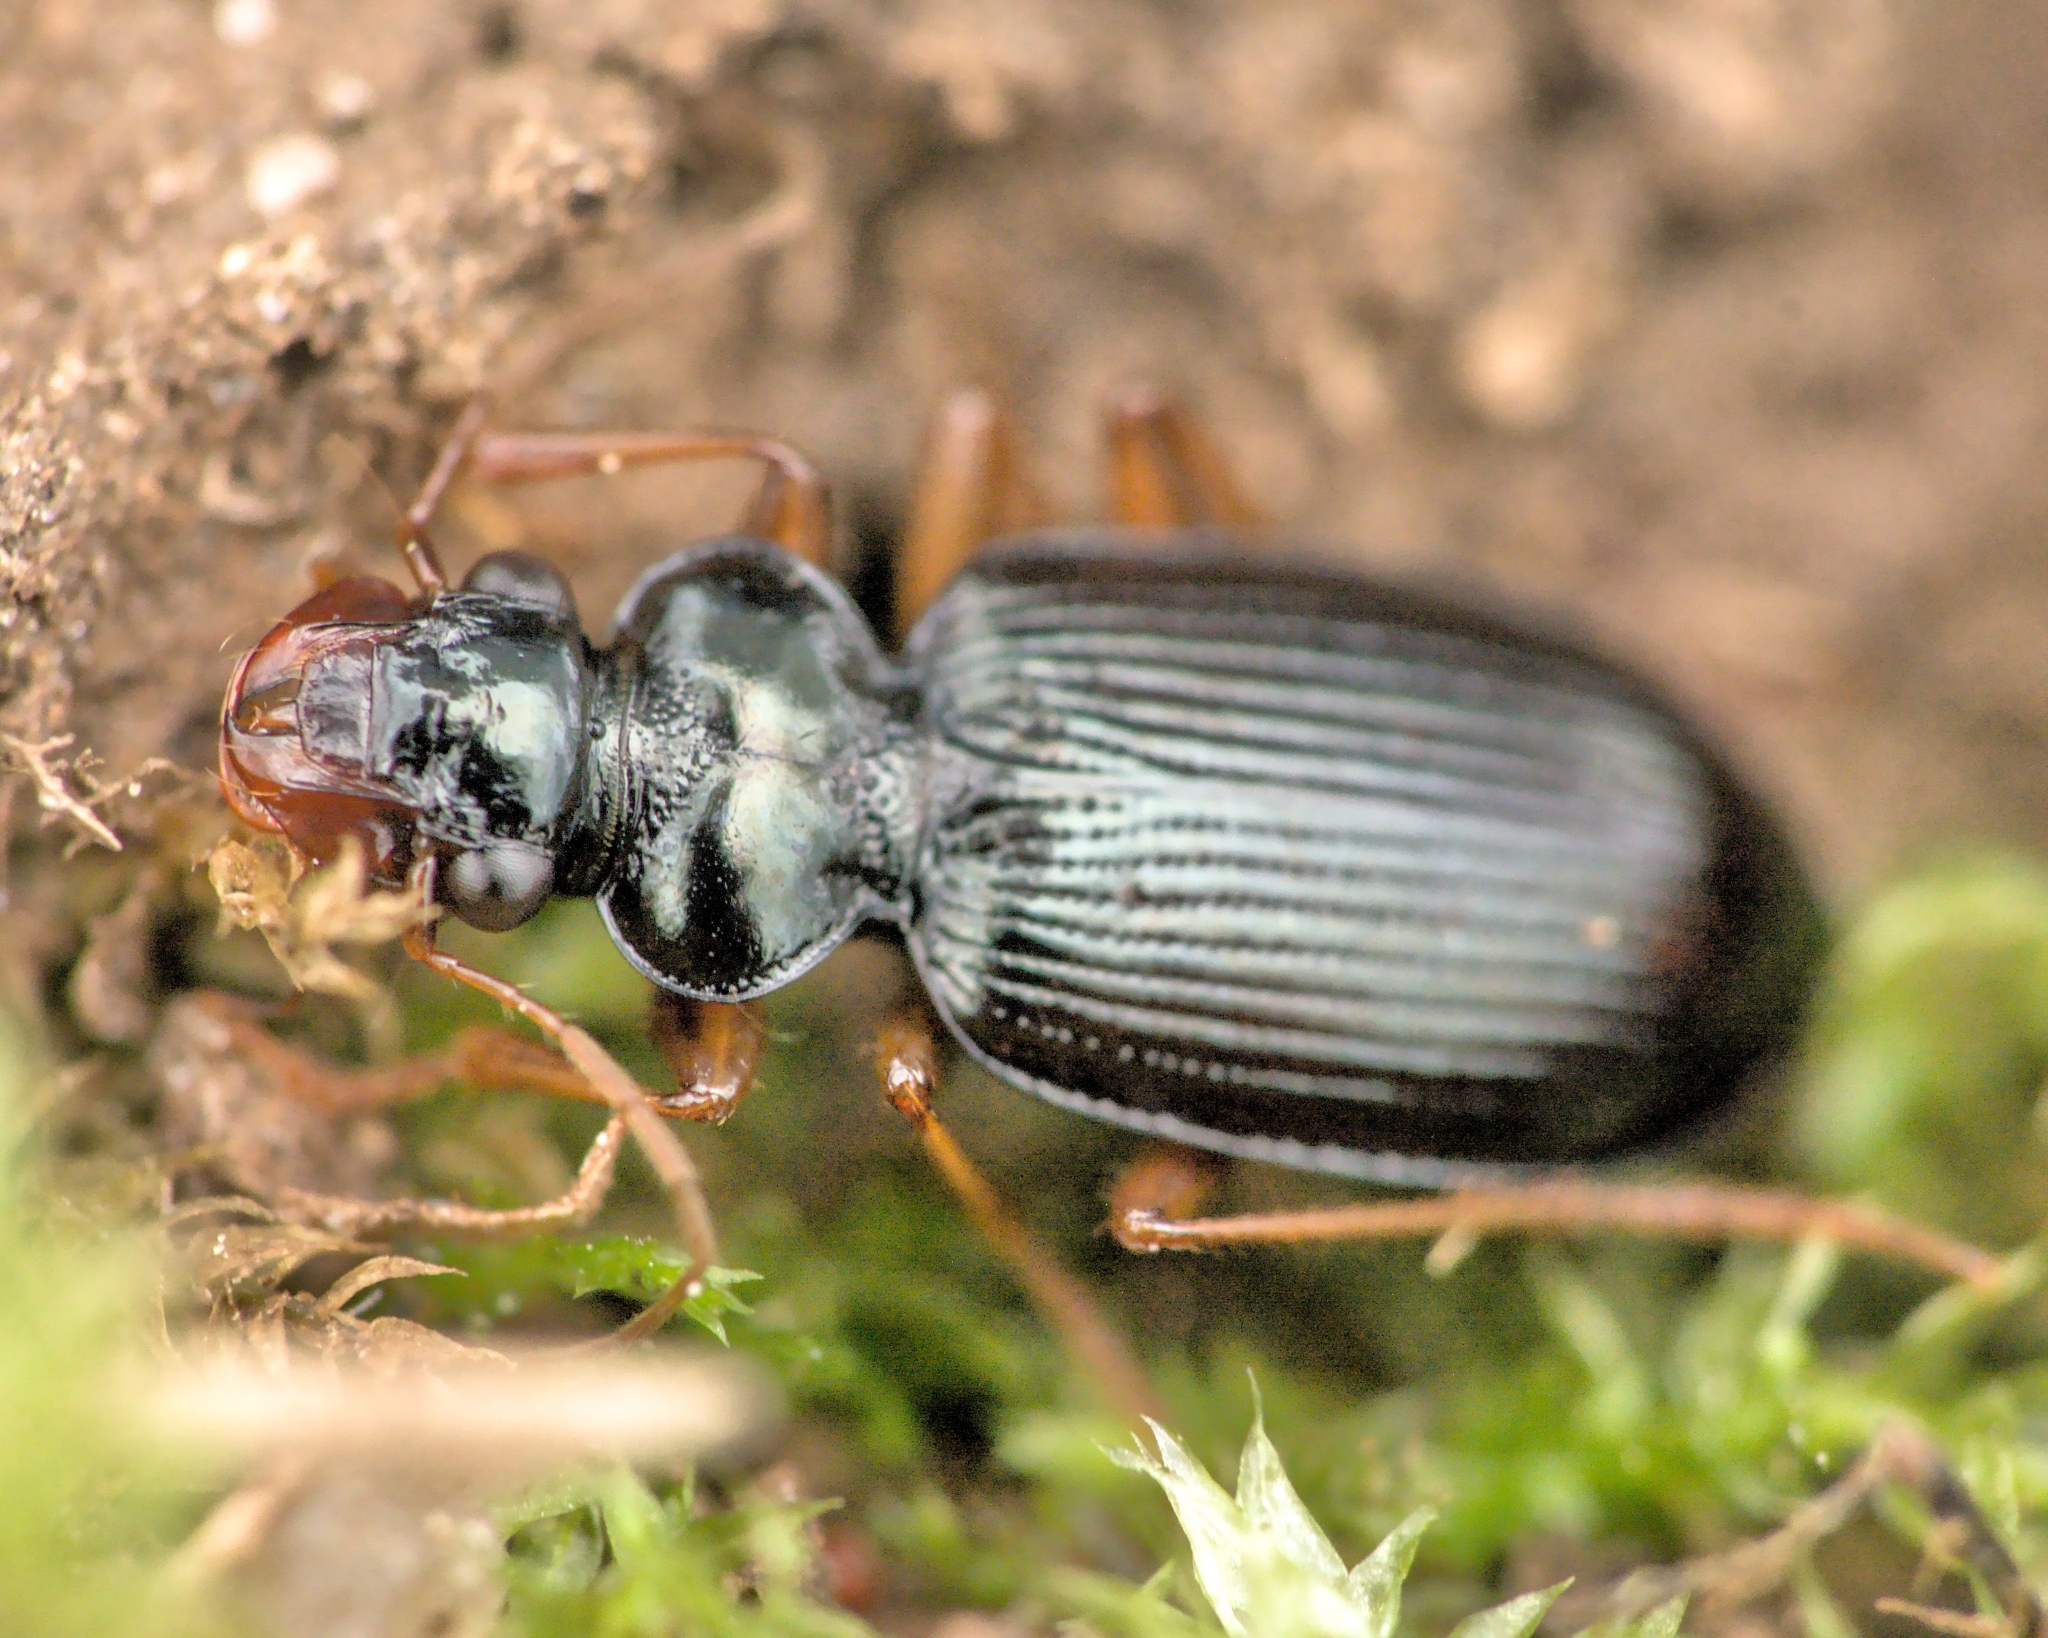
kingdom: Animalia
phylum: Arthropoda
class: Insecta
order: Coleoptera
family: Carabidae
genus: Leistus
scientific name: Leistus fulvibarbis
